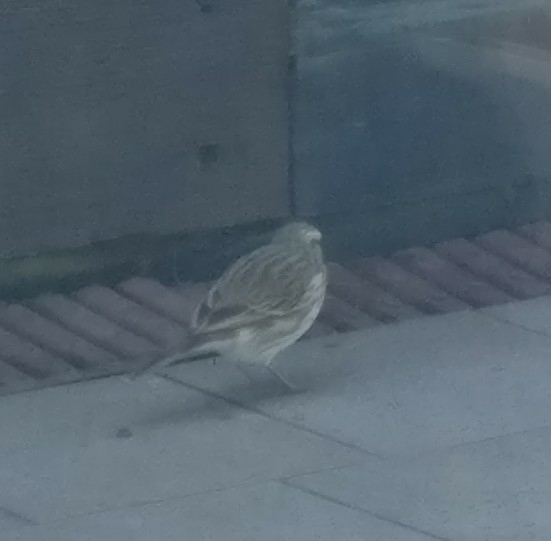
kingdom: Animalia
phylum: Chordata
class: Aves
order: Passeriformes
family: Motacillidae
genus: Anthus
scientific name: Anthus novaeseelandiae
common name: New zealand pipit
